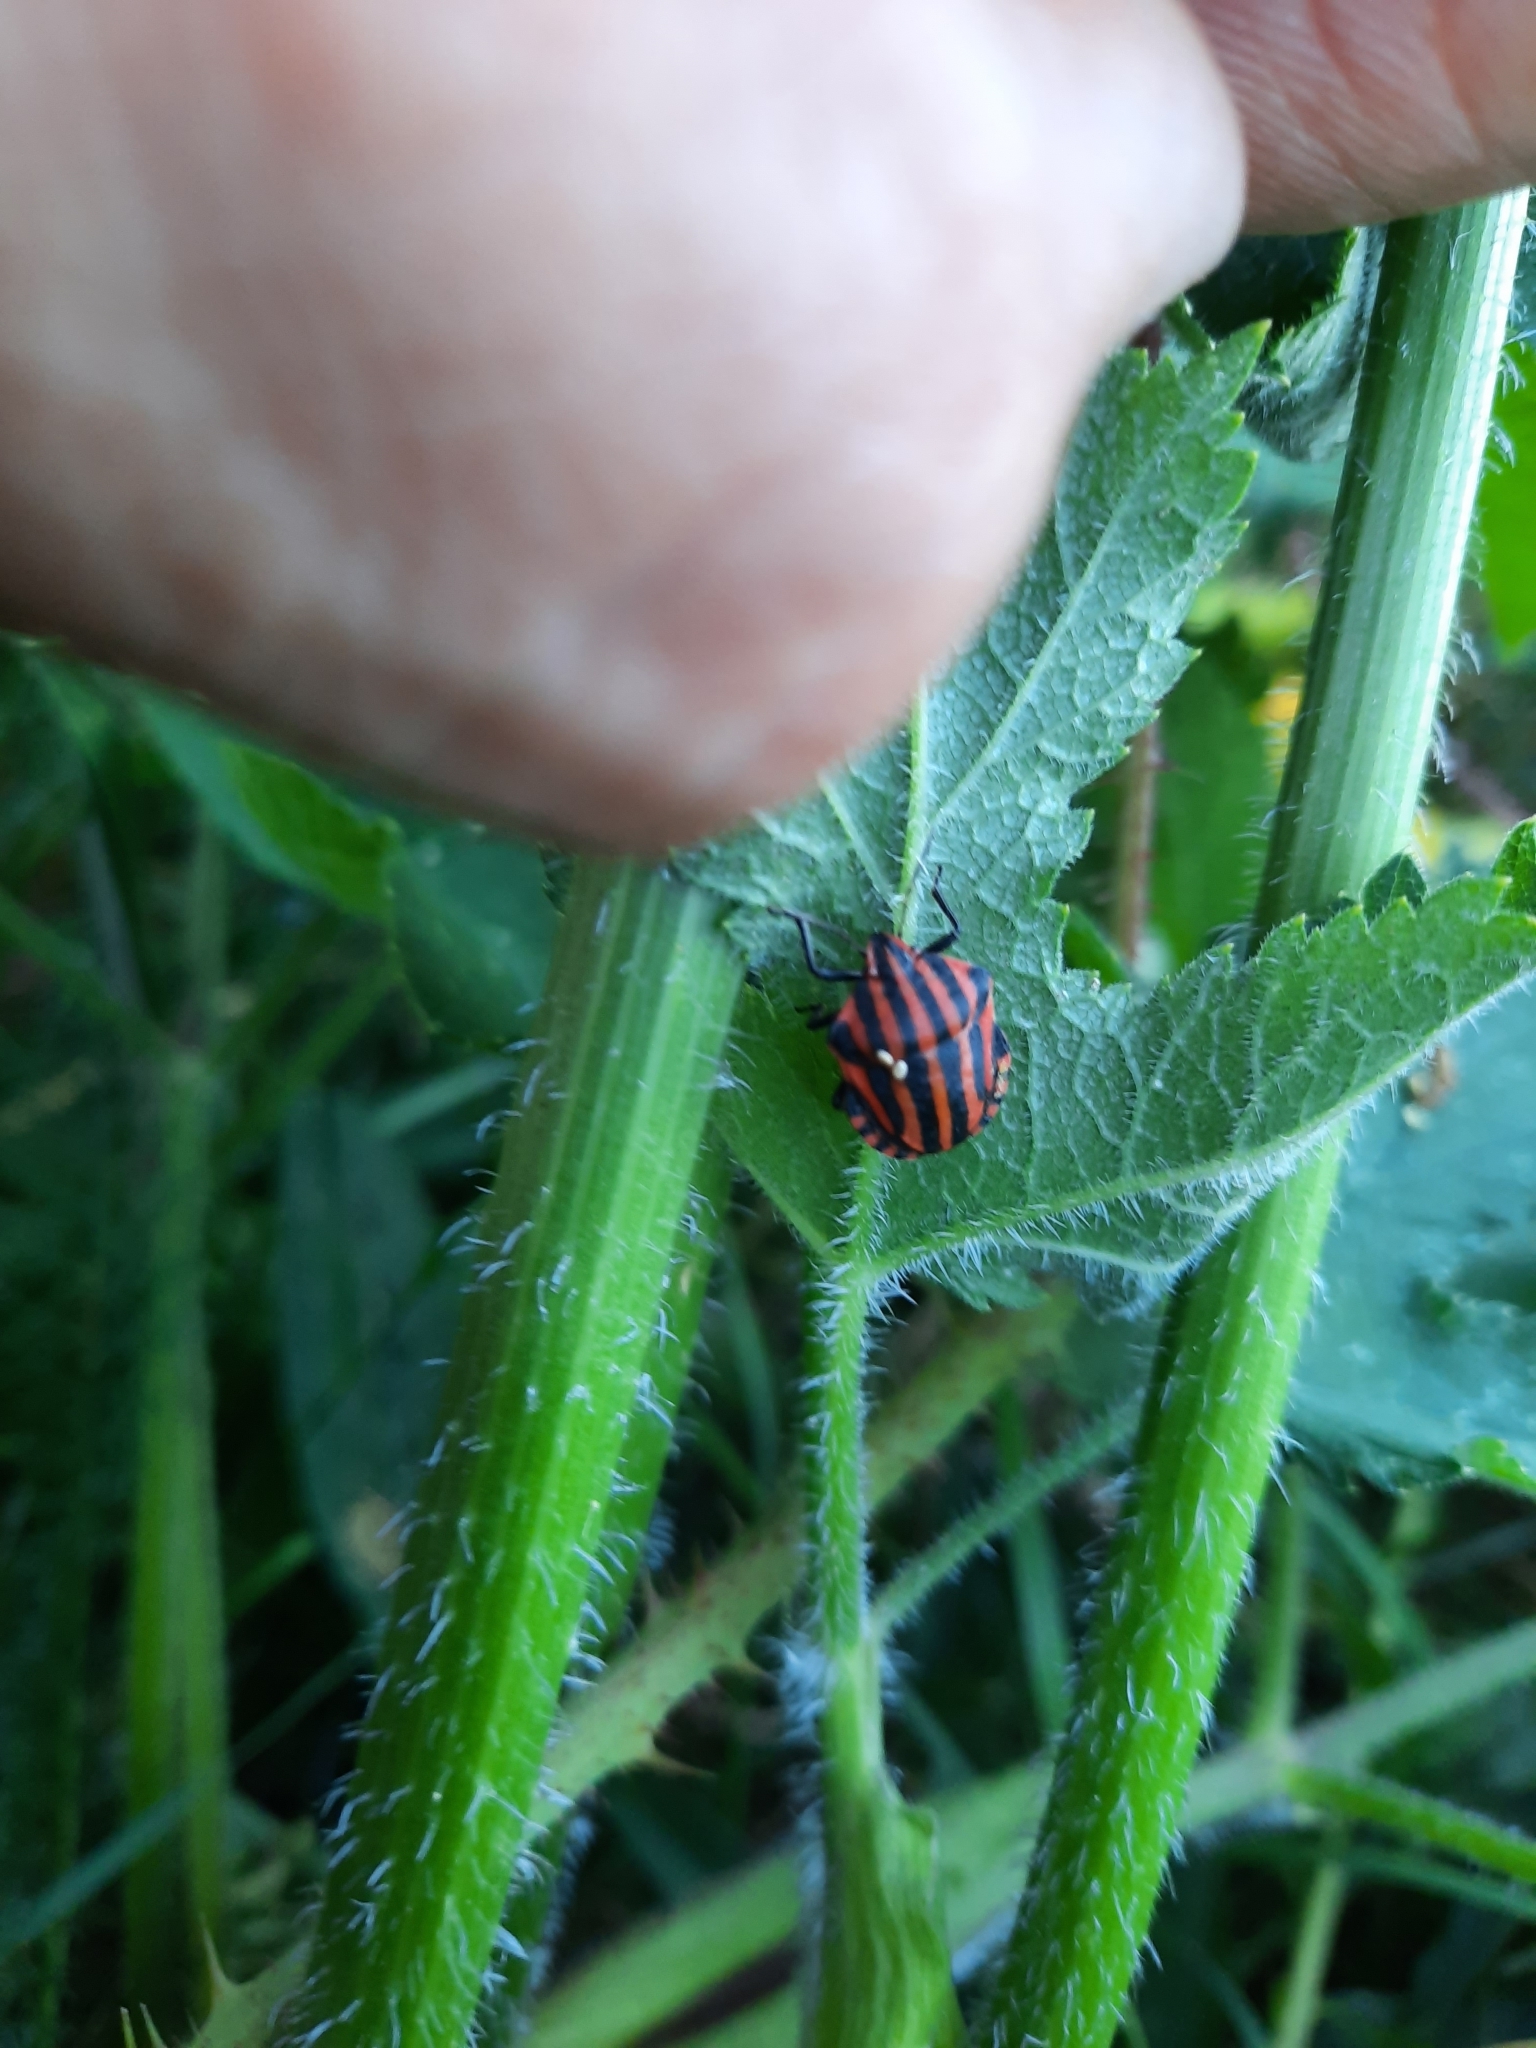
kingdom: Animalia
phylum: Arthropoda
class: Insecta
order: Hemiptera
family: Pentatomidae
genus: Graphosoma
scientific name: Graphosoma italicum
